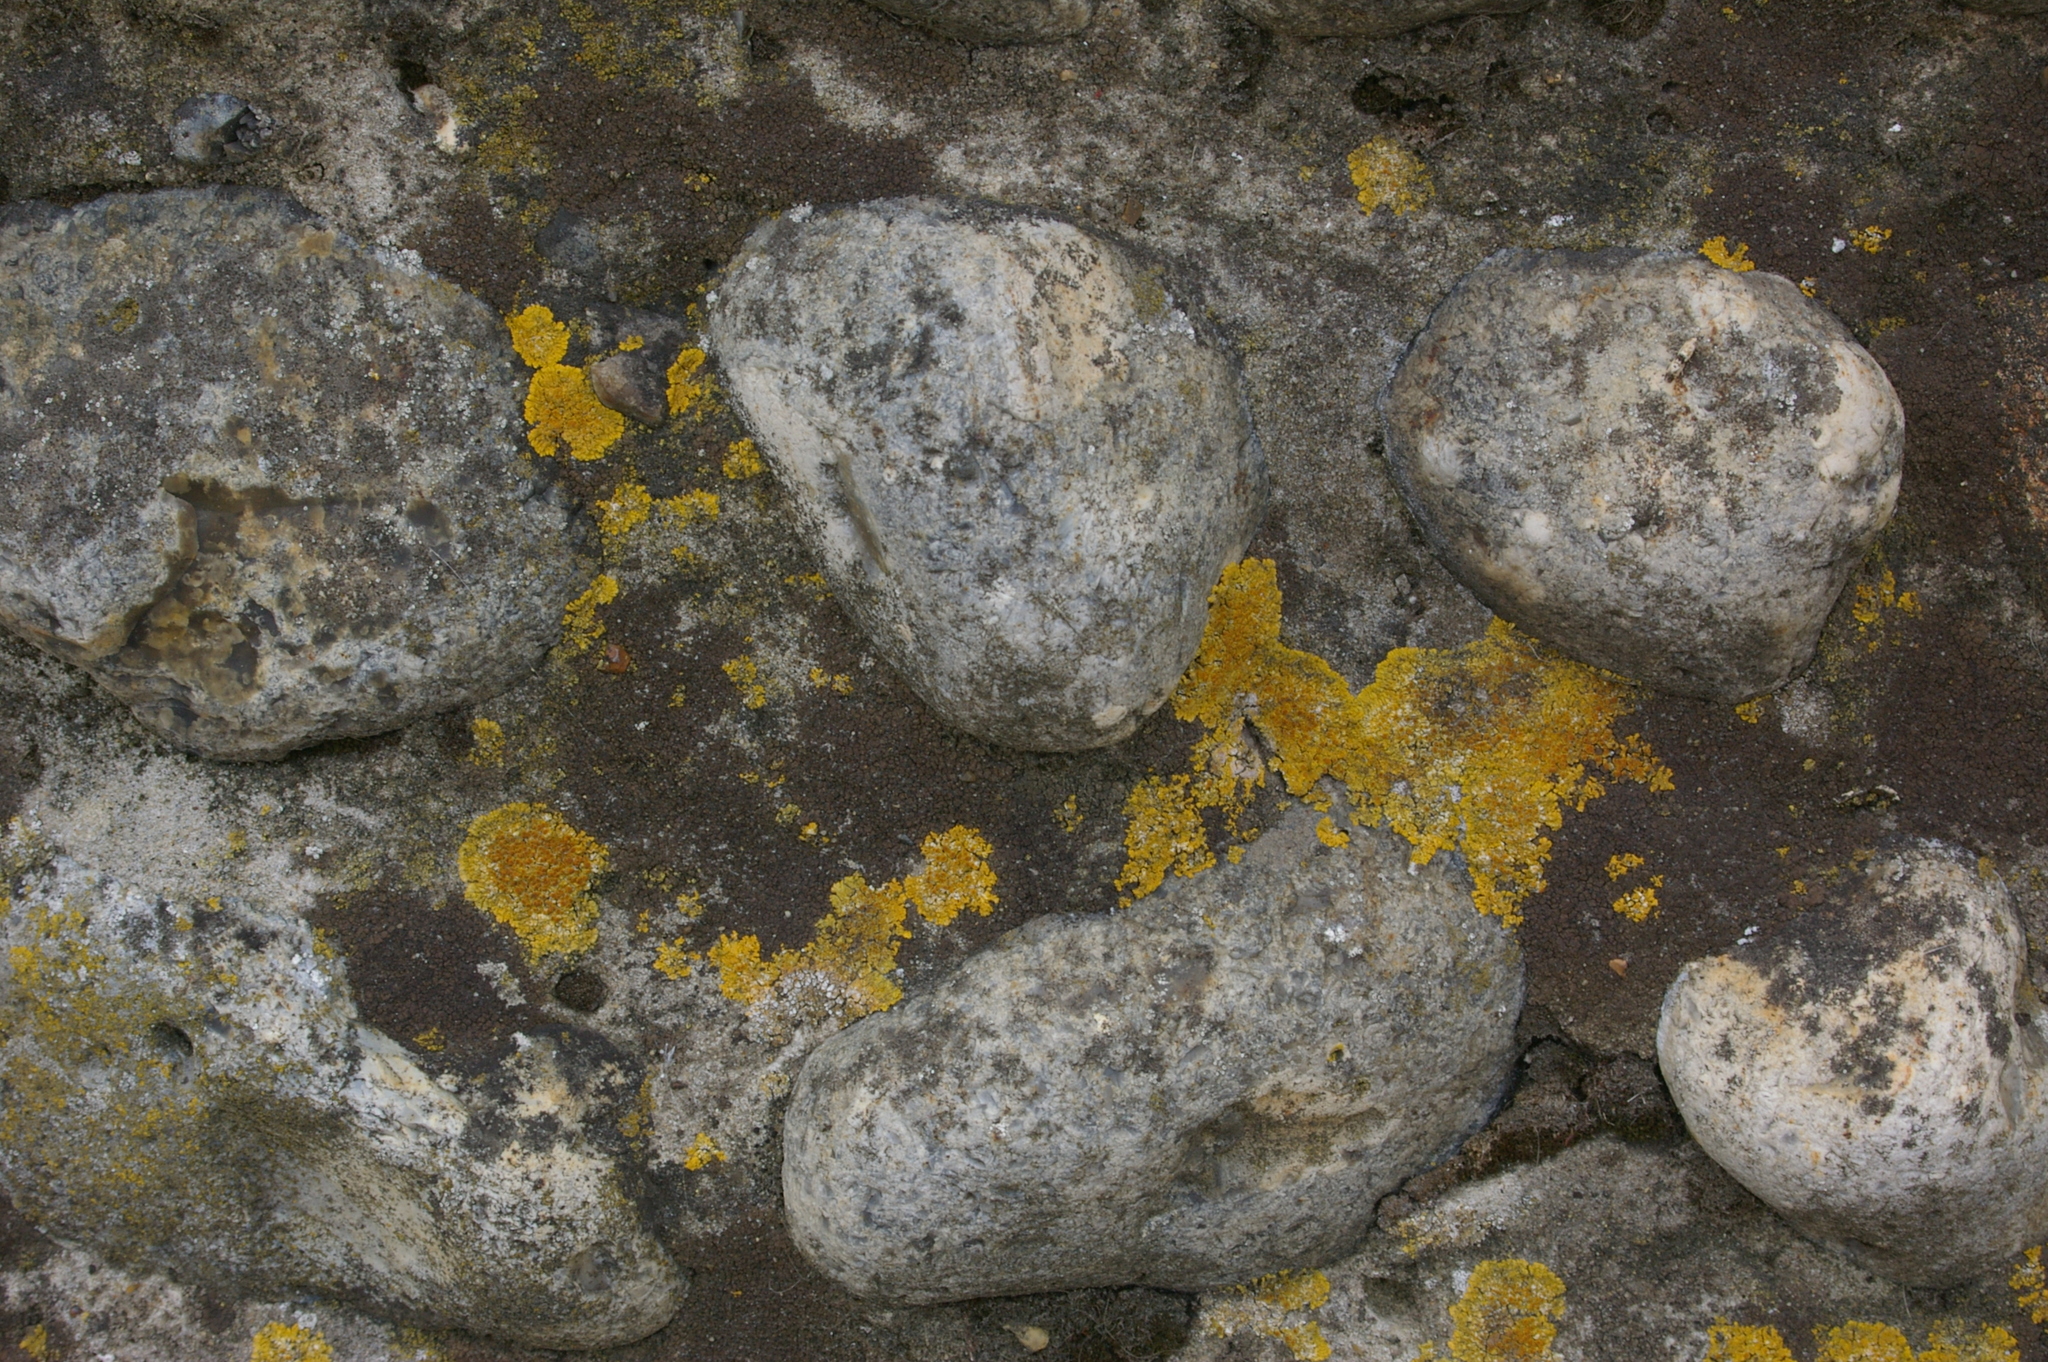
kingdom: Fungi
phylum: Ascomycota
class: Lecanoromycetes
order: Teloschistales
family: Teloschistaceae
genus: Variospora
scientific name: Variospora flavescens
